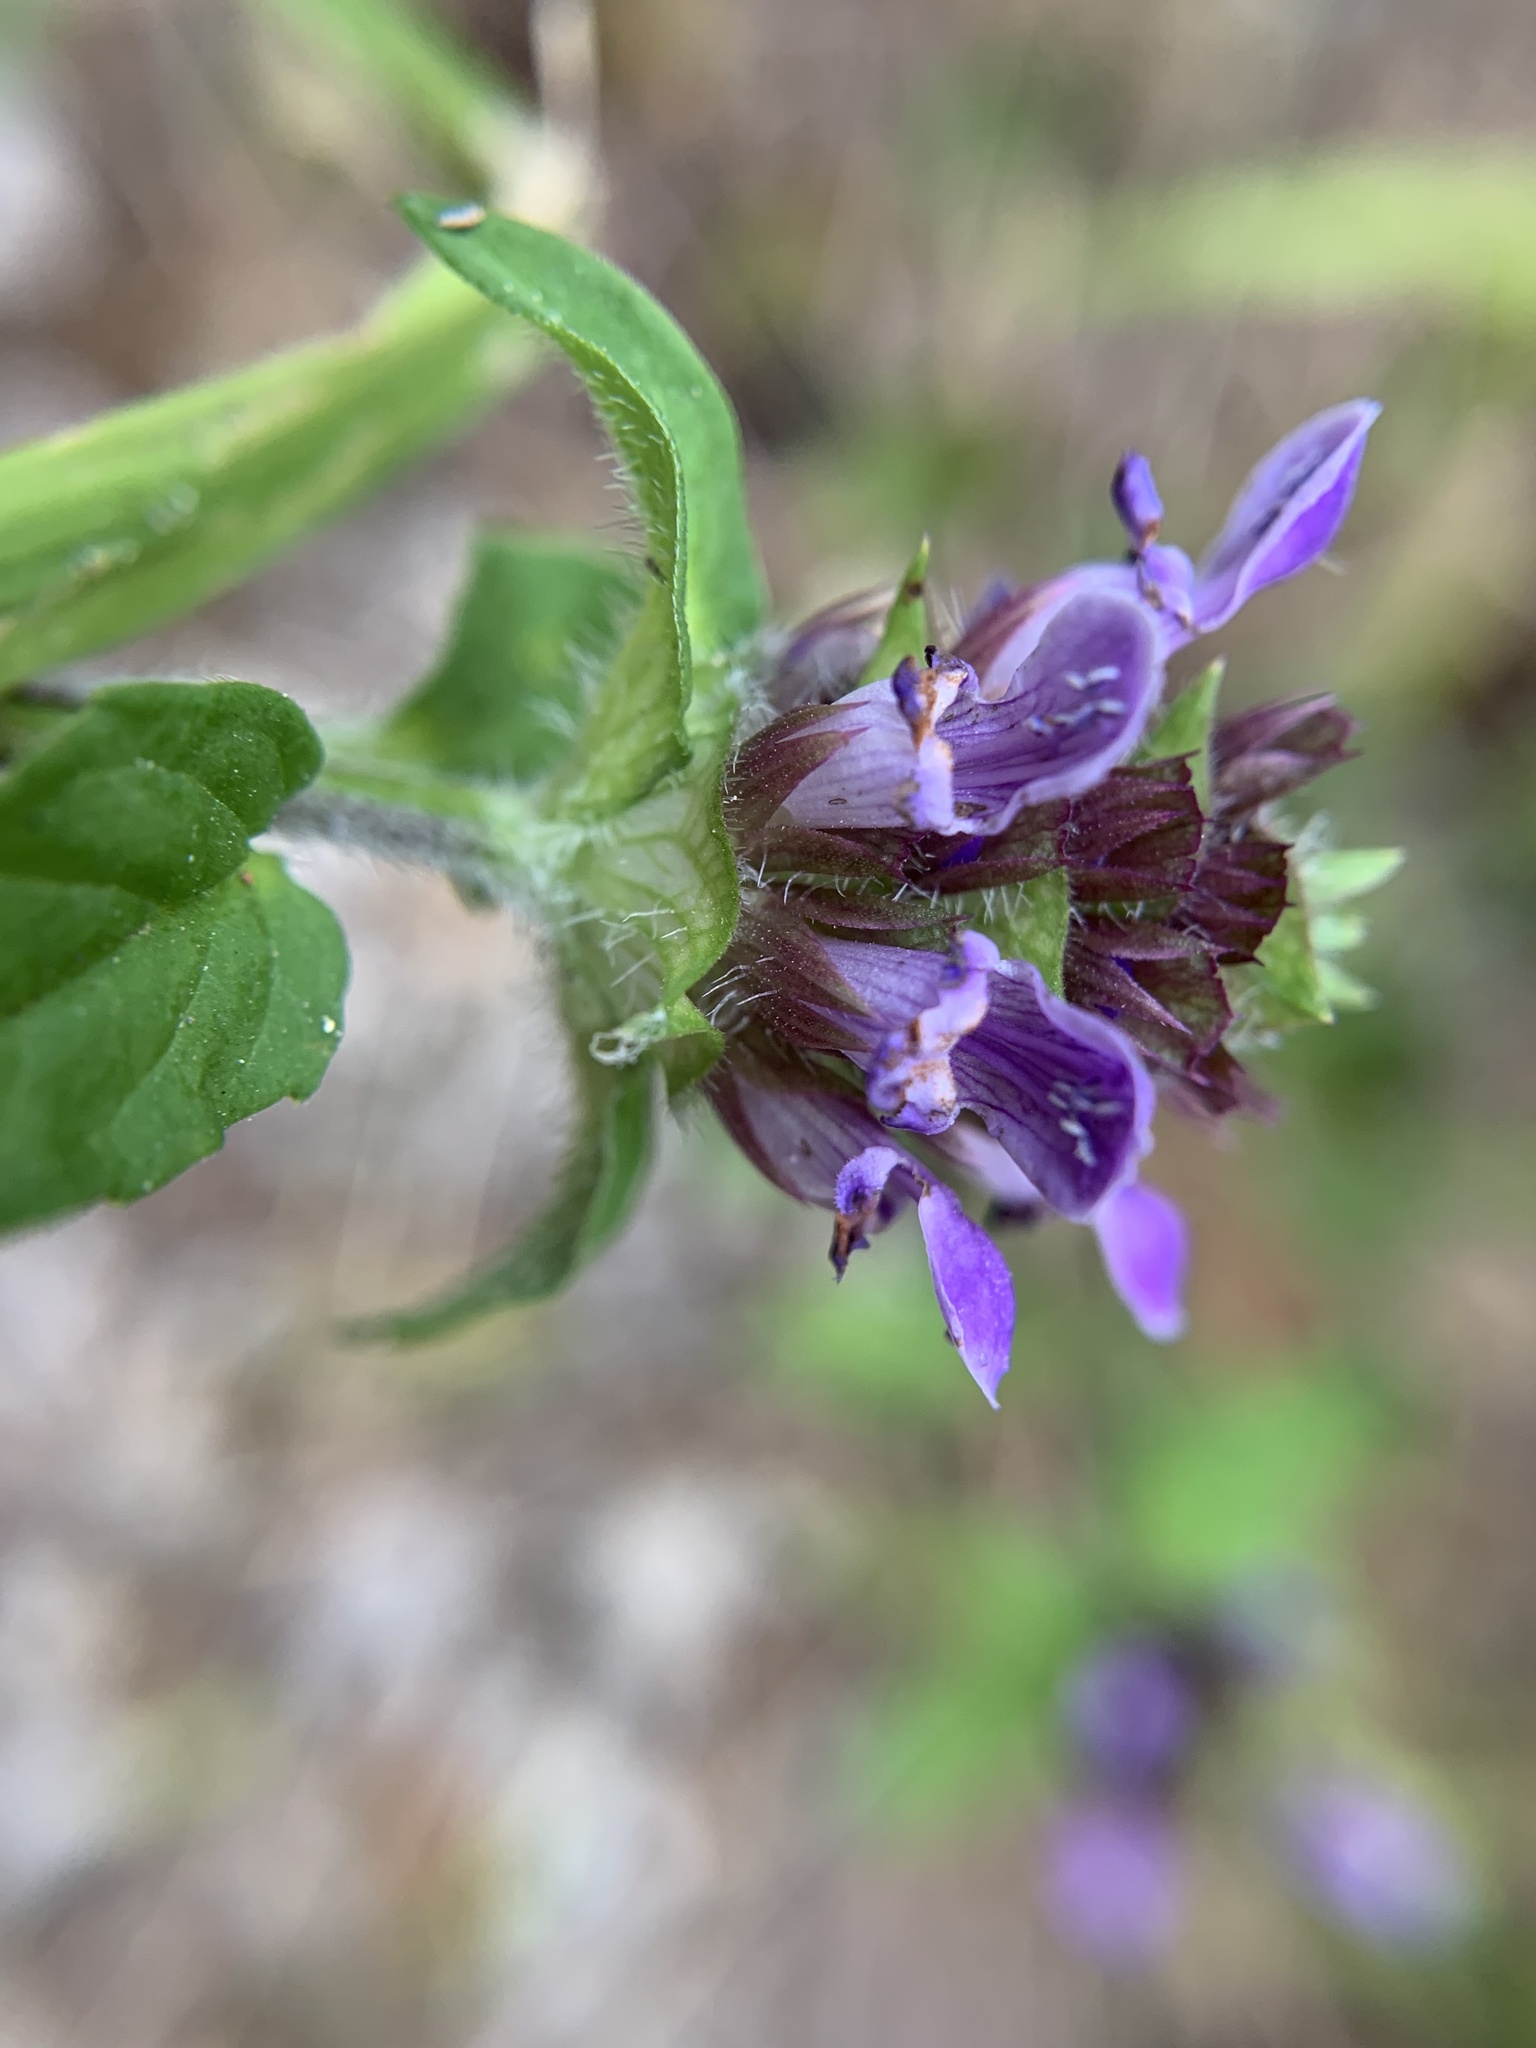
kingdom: Plantae
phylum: Tracheophyta
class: Magnoliopsida
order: Lamiales
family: Lamiaceae
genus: Prunella
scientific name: Prunella vulgaris
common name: Heal-all
